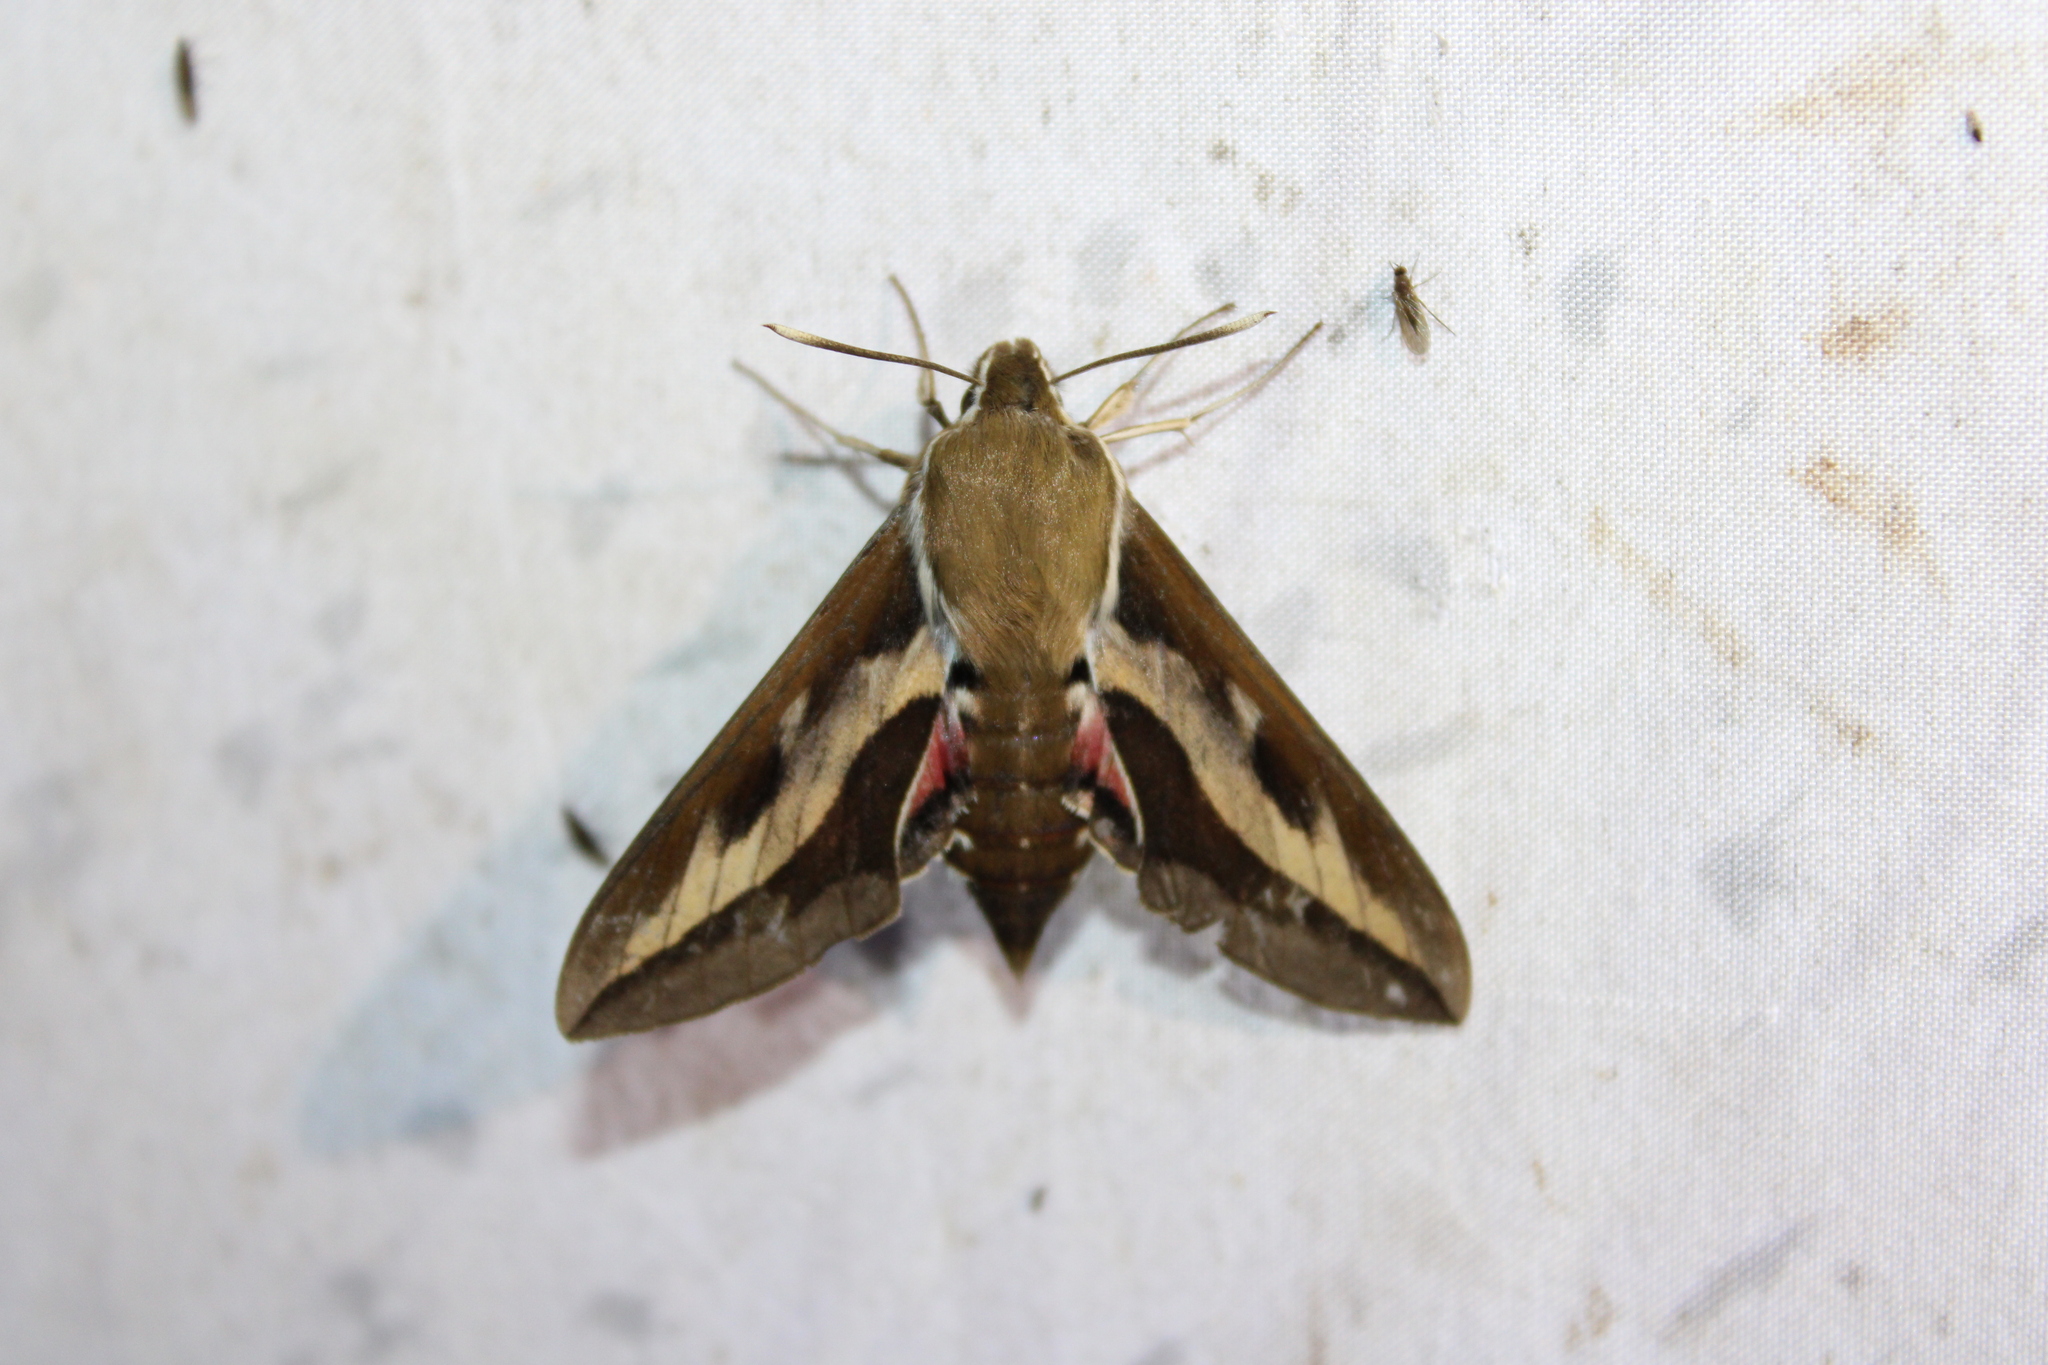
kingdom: Animalia
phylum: Arthropoda
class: Insecta
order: Lepidoptera
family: Sphingidae
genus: Hyles
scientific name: Hyles gallii
